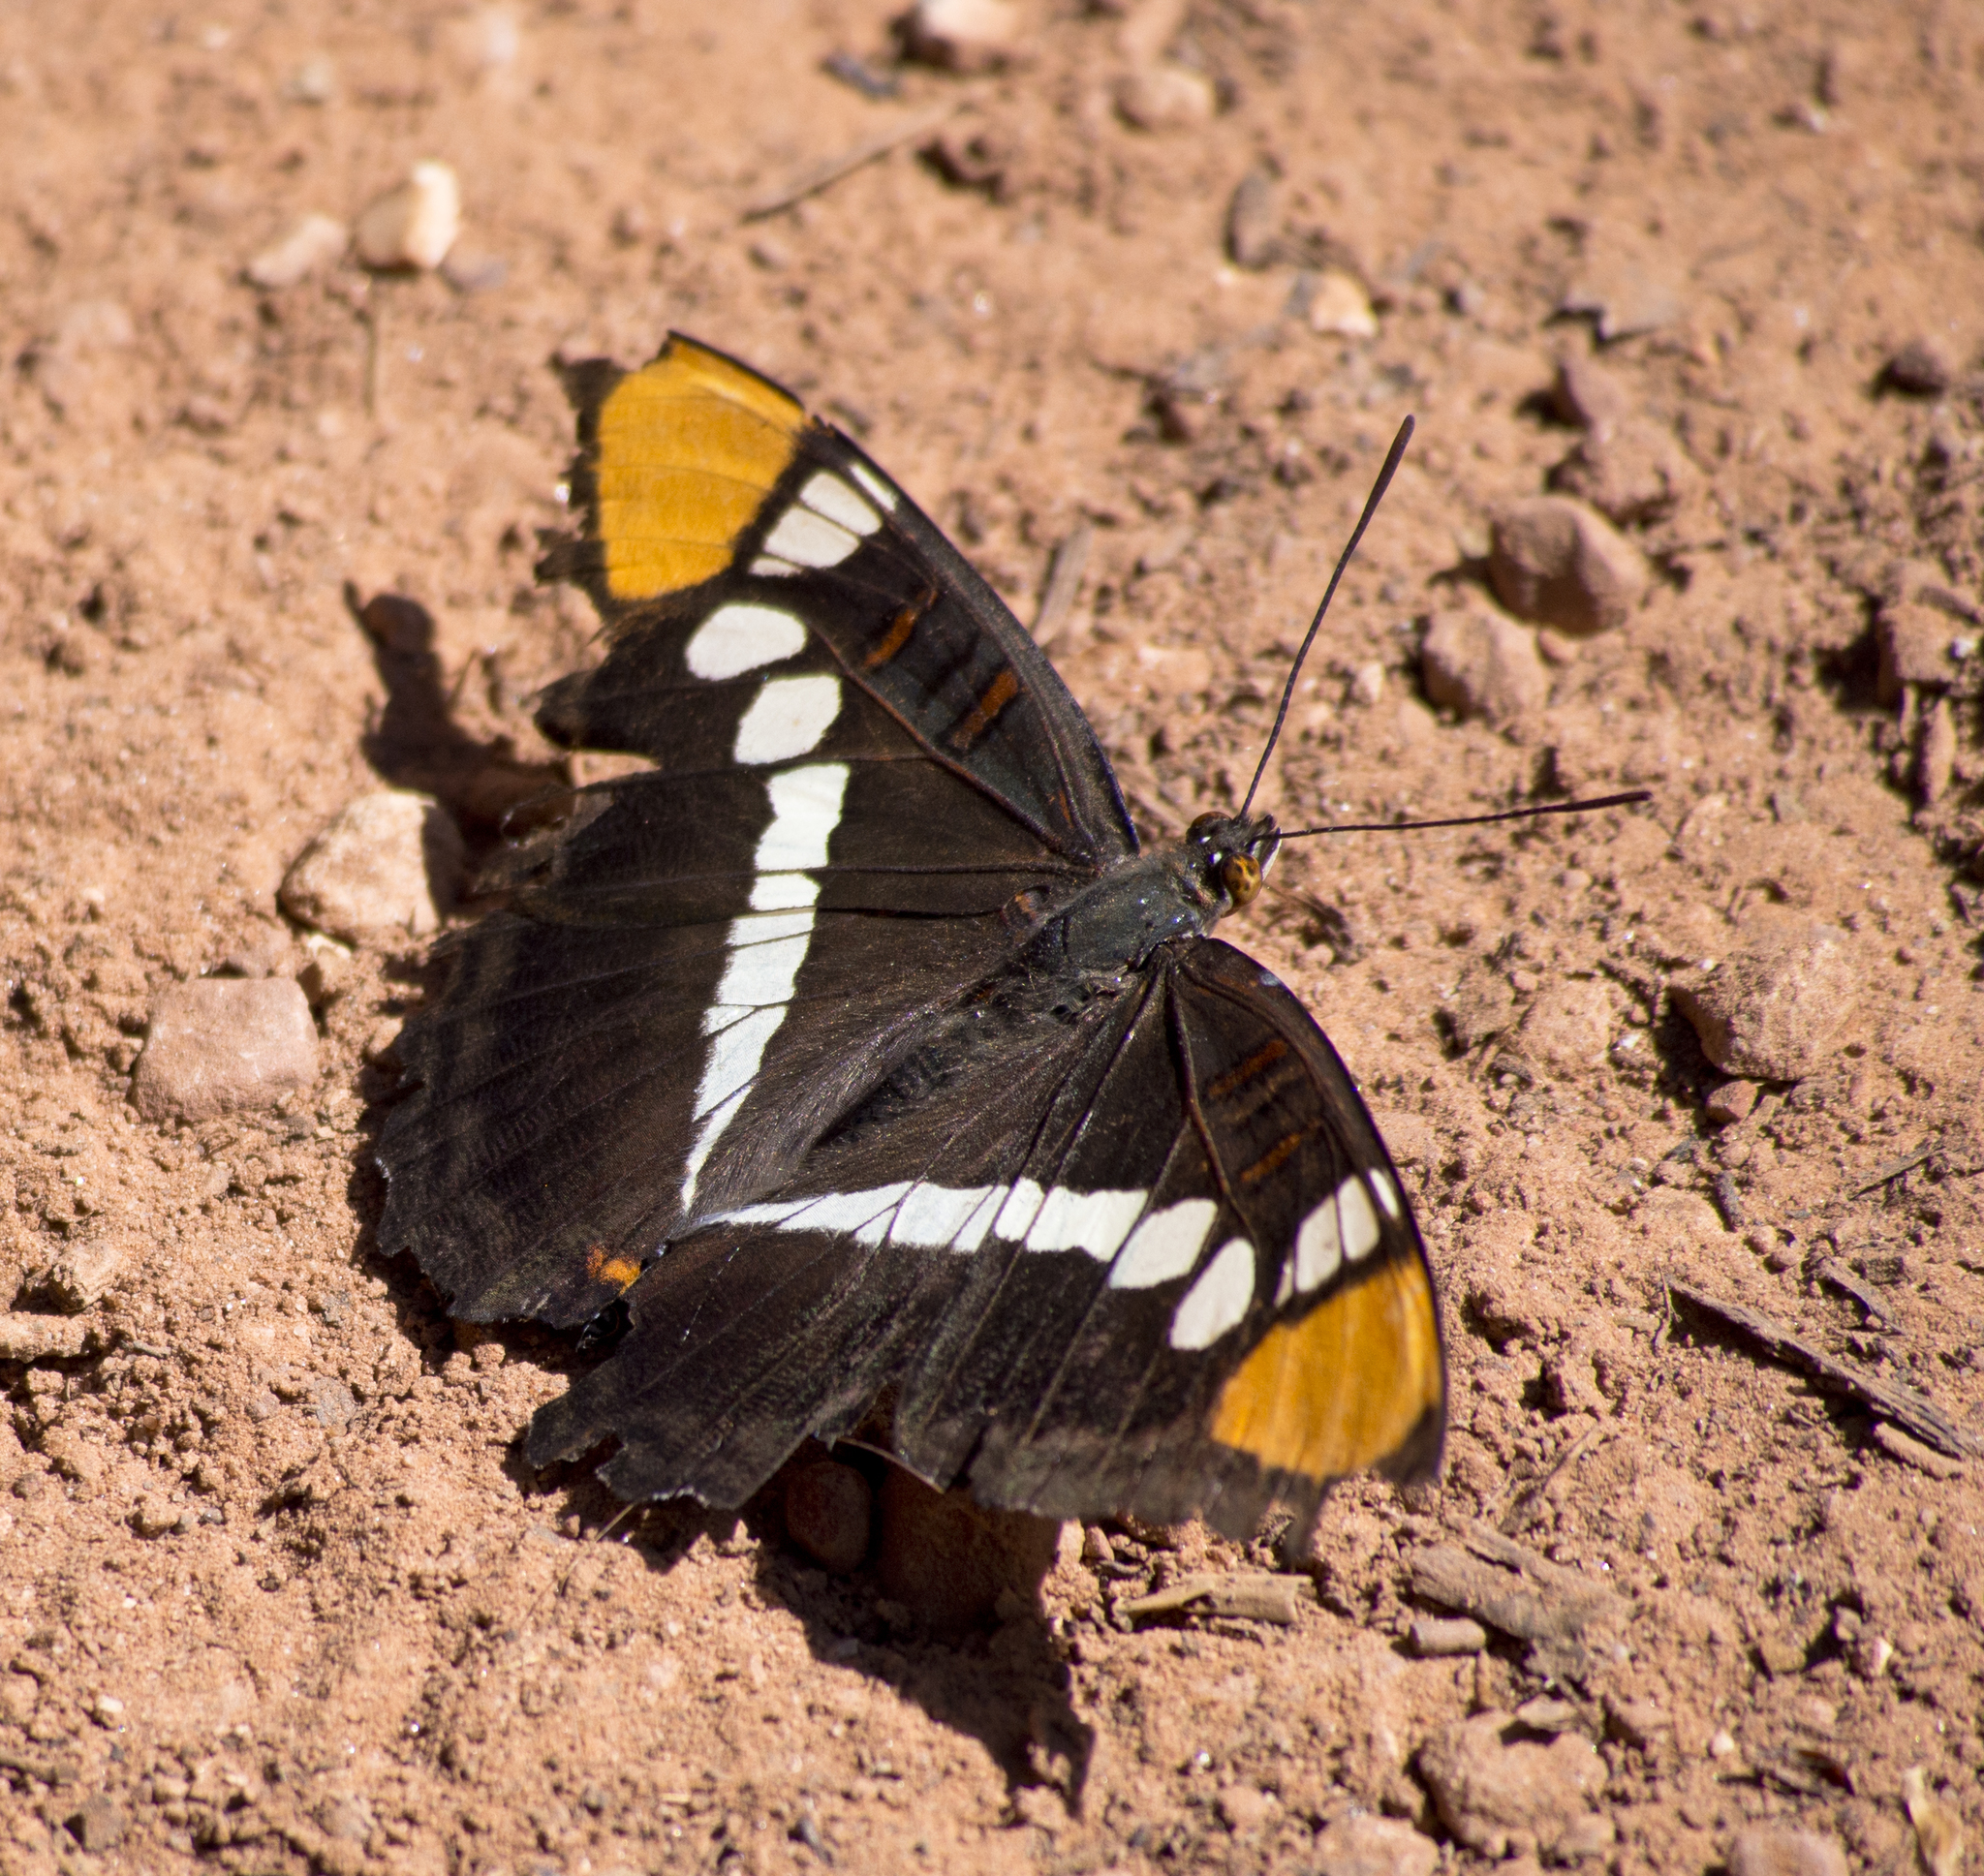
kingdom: Animalia
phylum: Arthropoda
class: Insecta
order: Lepidoptera
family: Nymphalidae
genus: Limenitis
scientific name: Limenitis bredowii
